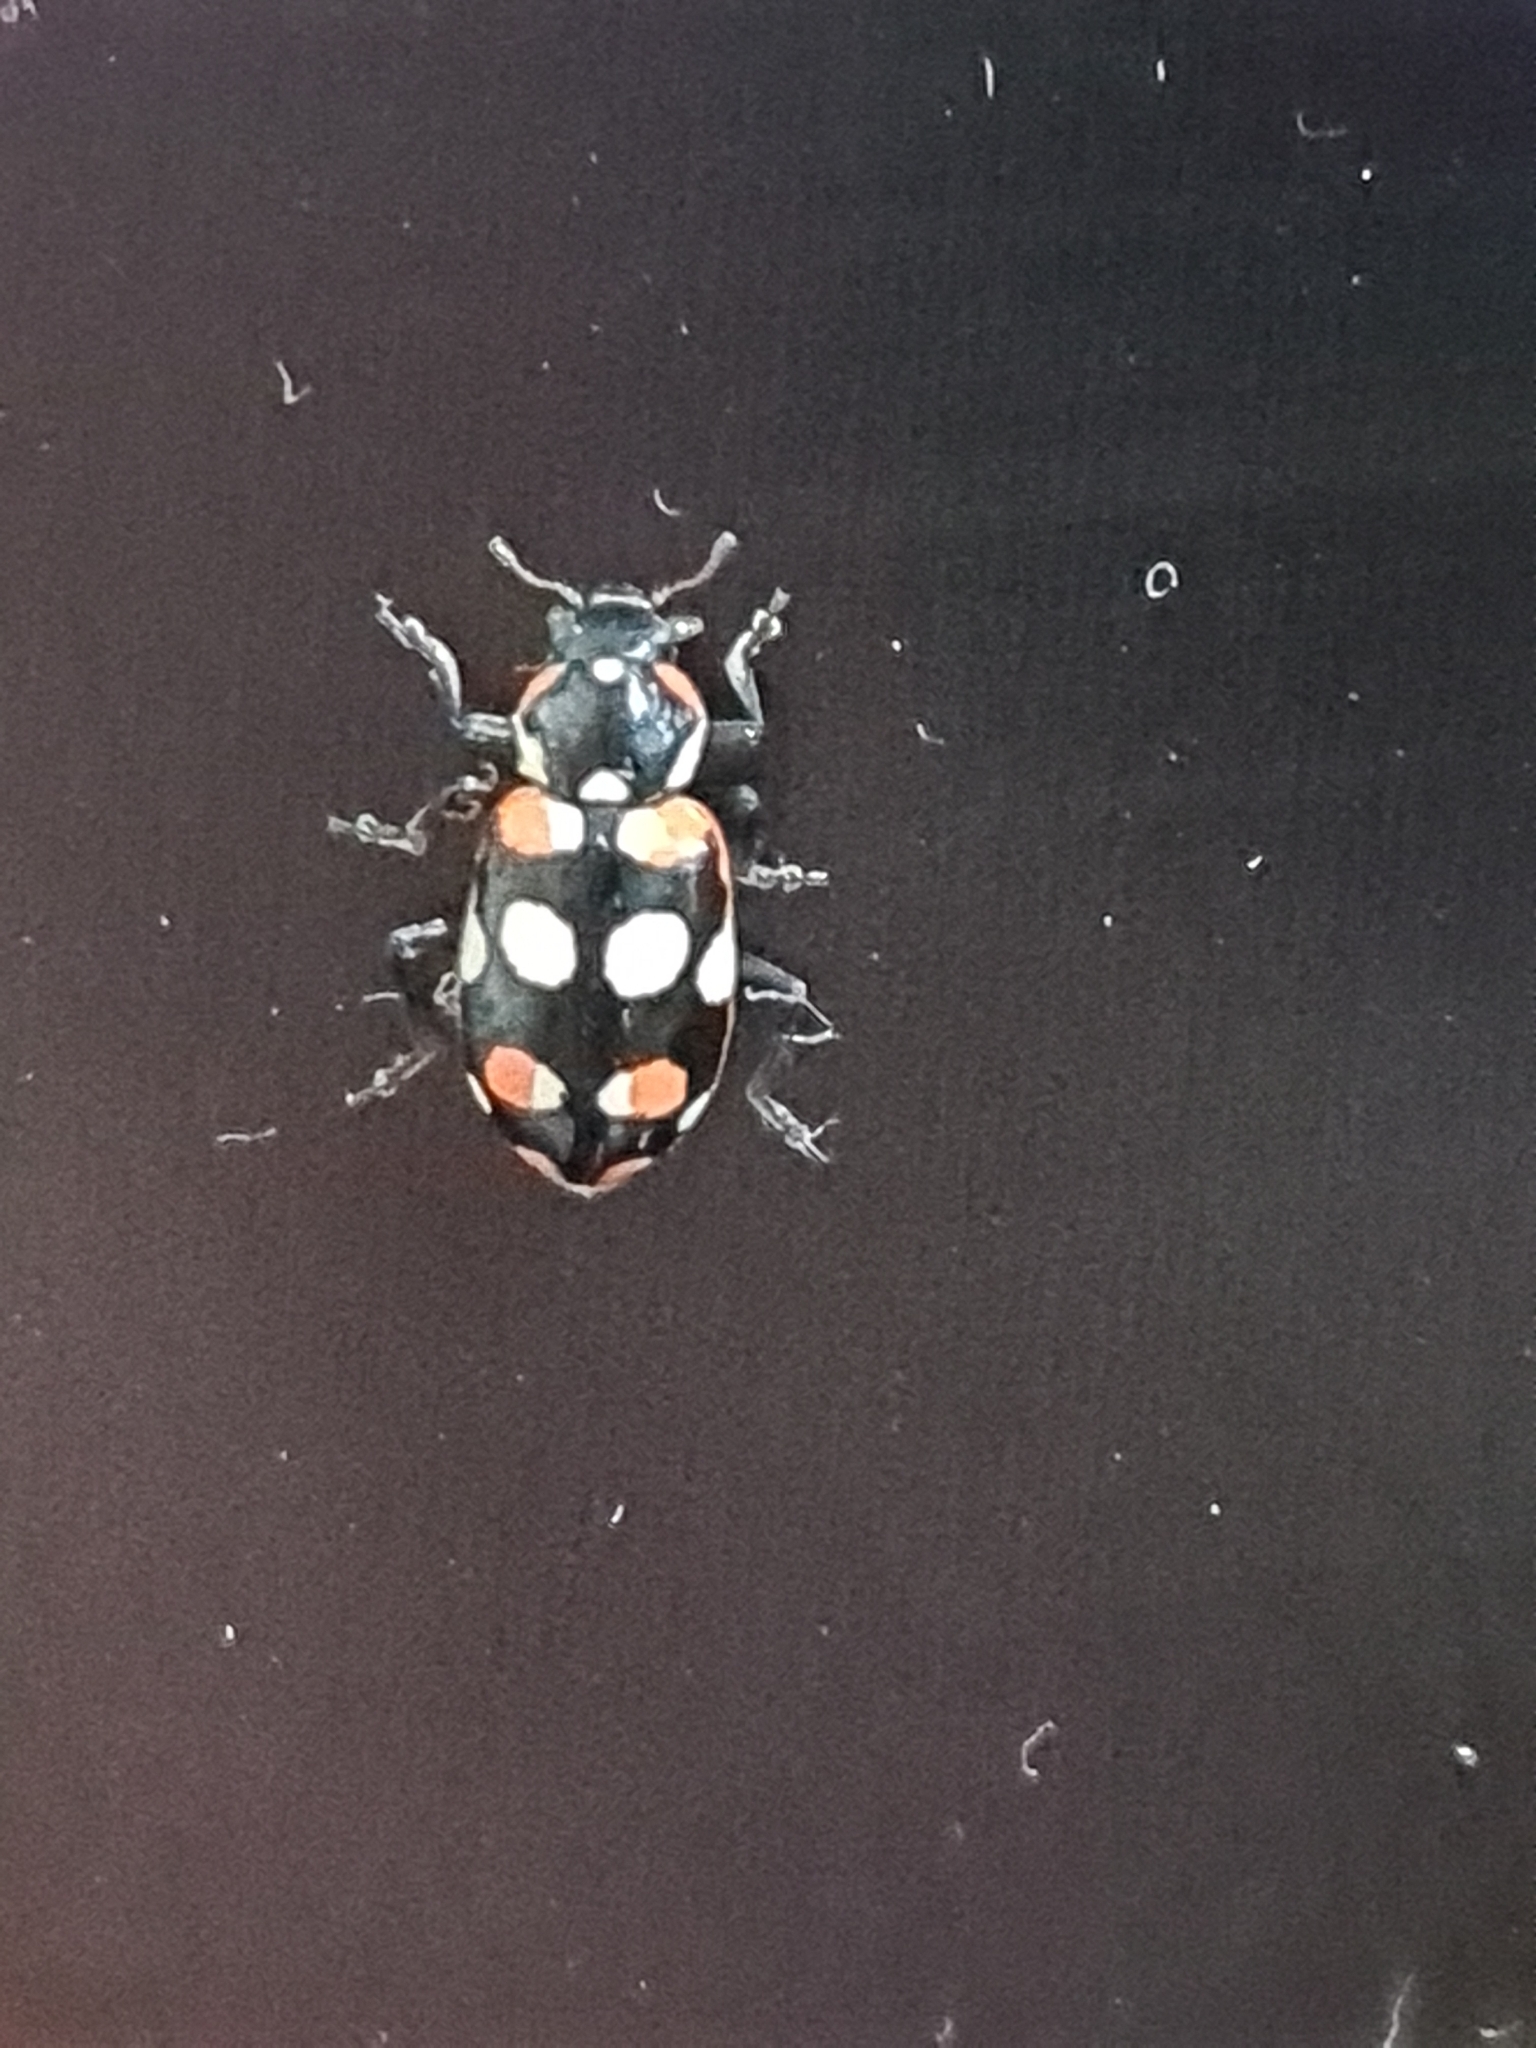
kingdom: Animalia
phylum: Arthropoda
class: Insecta
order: Coleoptera
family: Coccinellidae
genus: Eriopis
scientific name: Eriopis connexa
